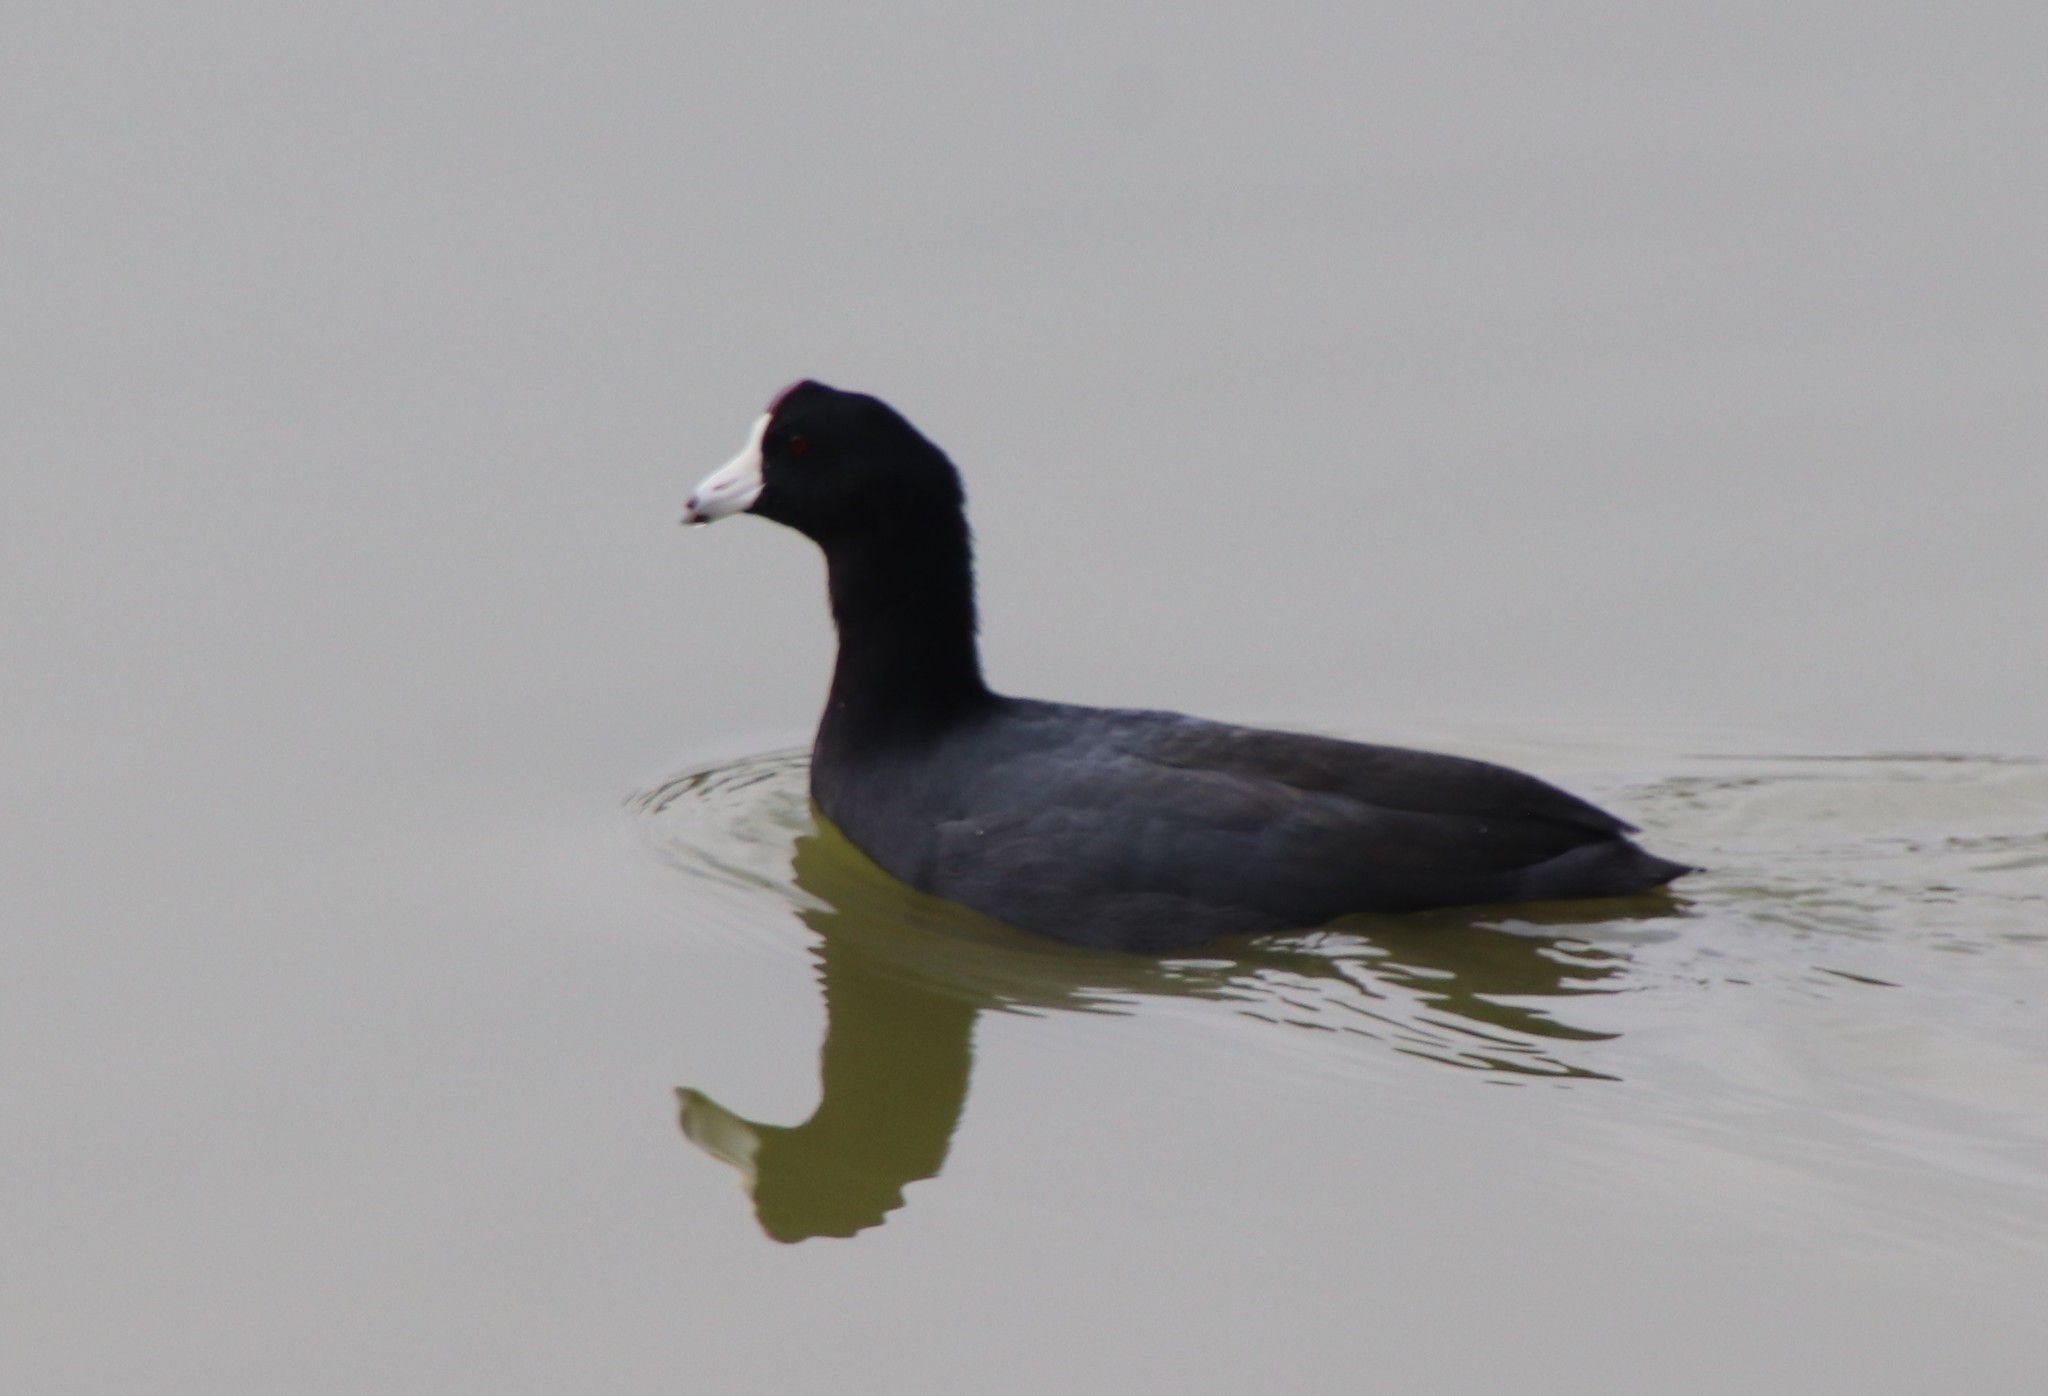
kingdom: Animalia
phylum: Chordata
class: Aves
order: Gruiformes
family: Rallidae
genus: Fulica
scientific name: Fulica americana
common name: American coot
